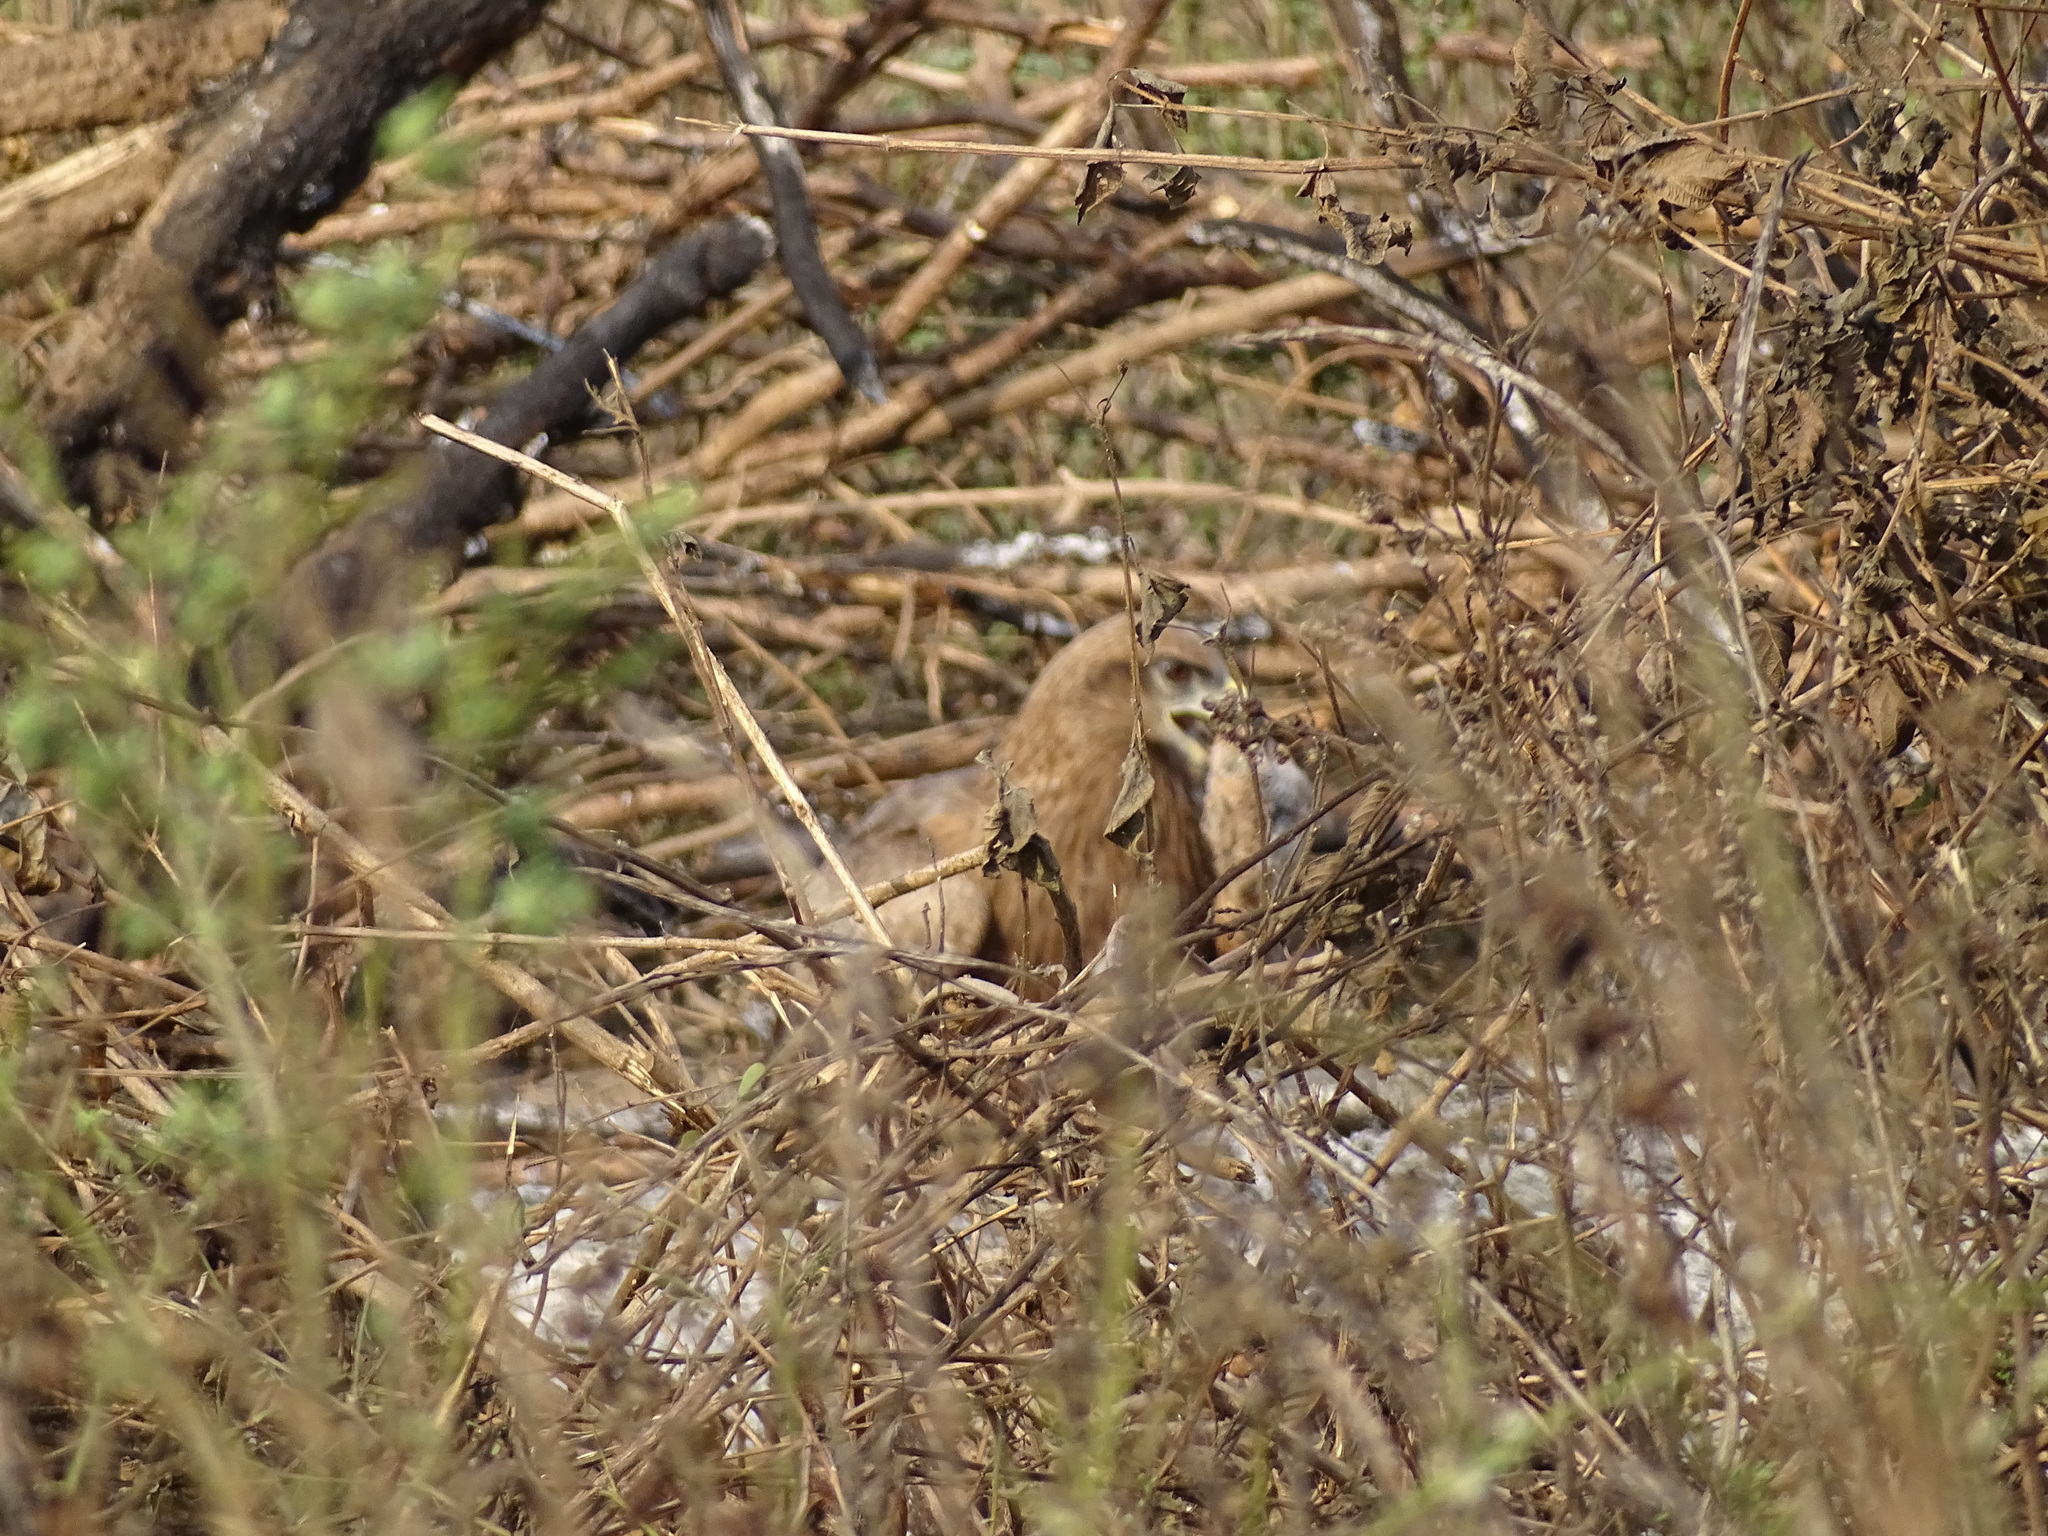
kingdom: Animalia
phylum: Chordata
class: Aves
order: Accipitriformes
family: Accipitridae
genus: Milvus
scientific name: Milvus migrans
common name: Black kite
